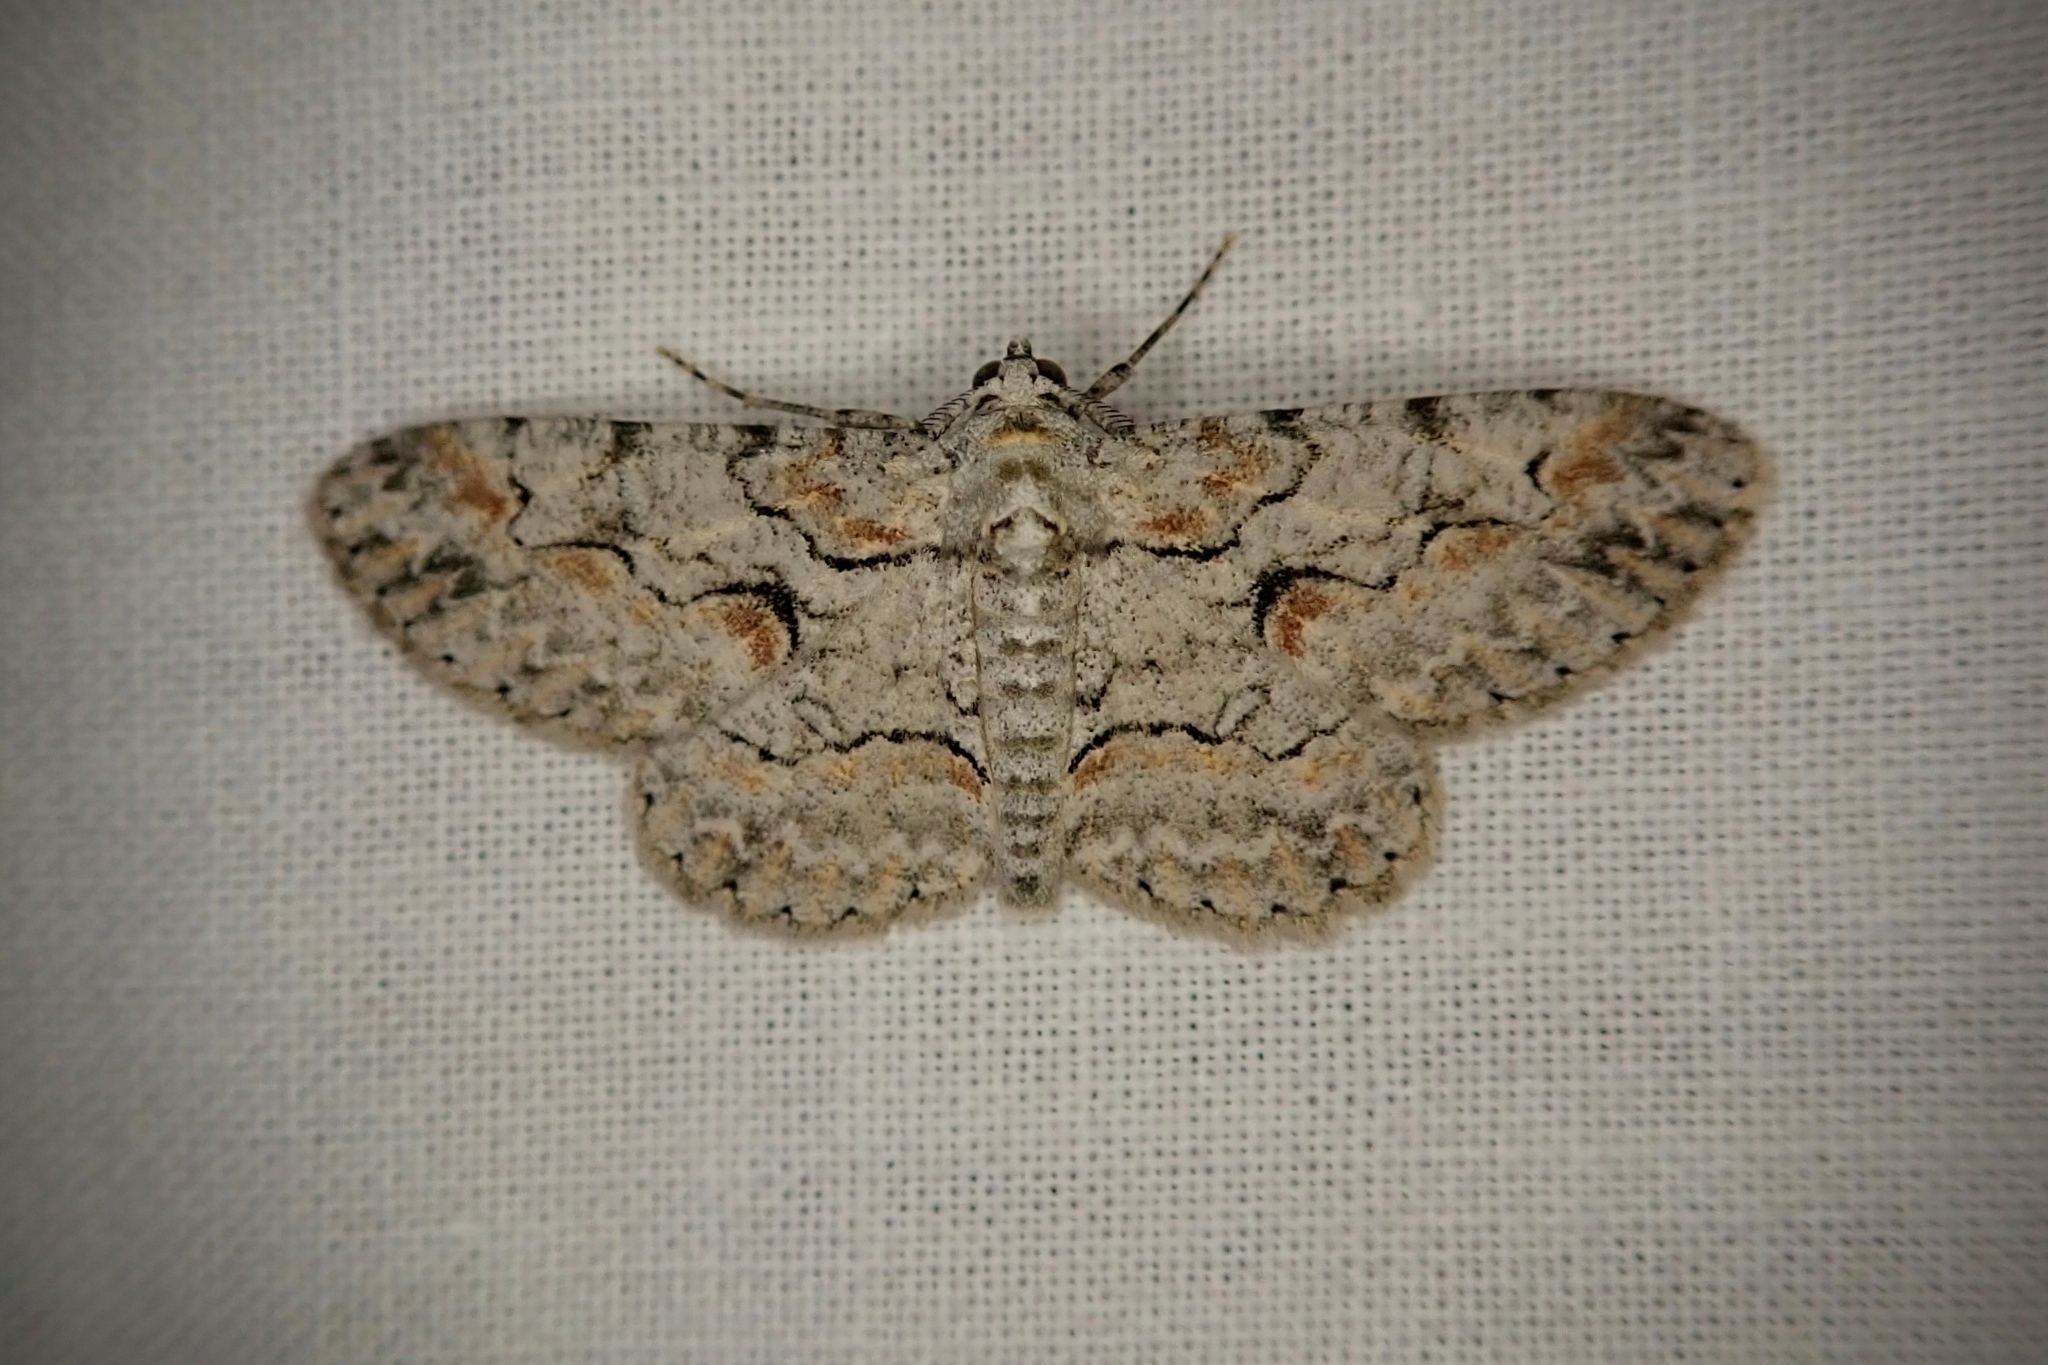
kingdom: Animalia
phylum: Arthropoda
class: Insecta
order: Lepidoptera
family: Geometridae
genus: Iridopsis
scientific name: Iridopsis defectaria
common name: Brown-shaded gray
